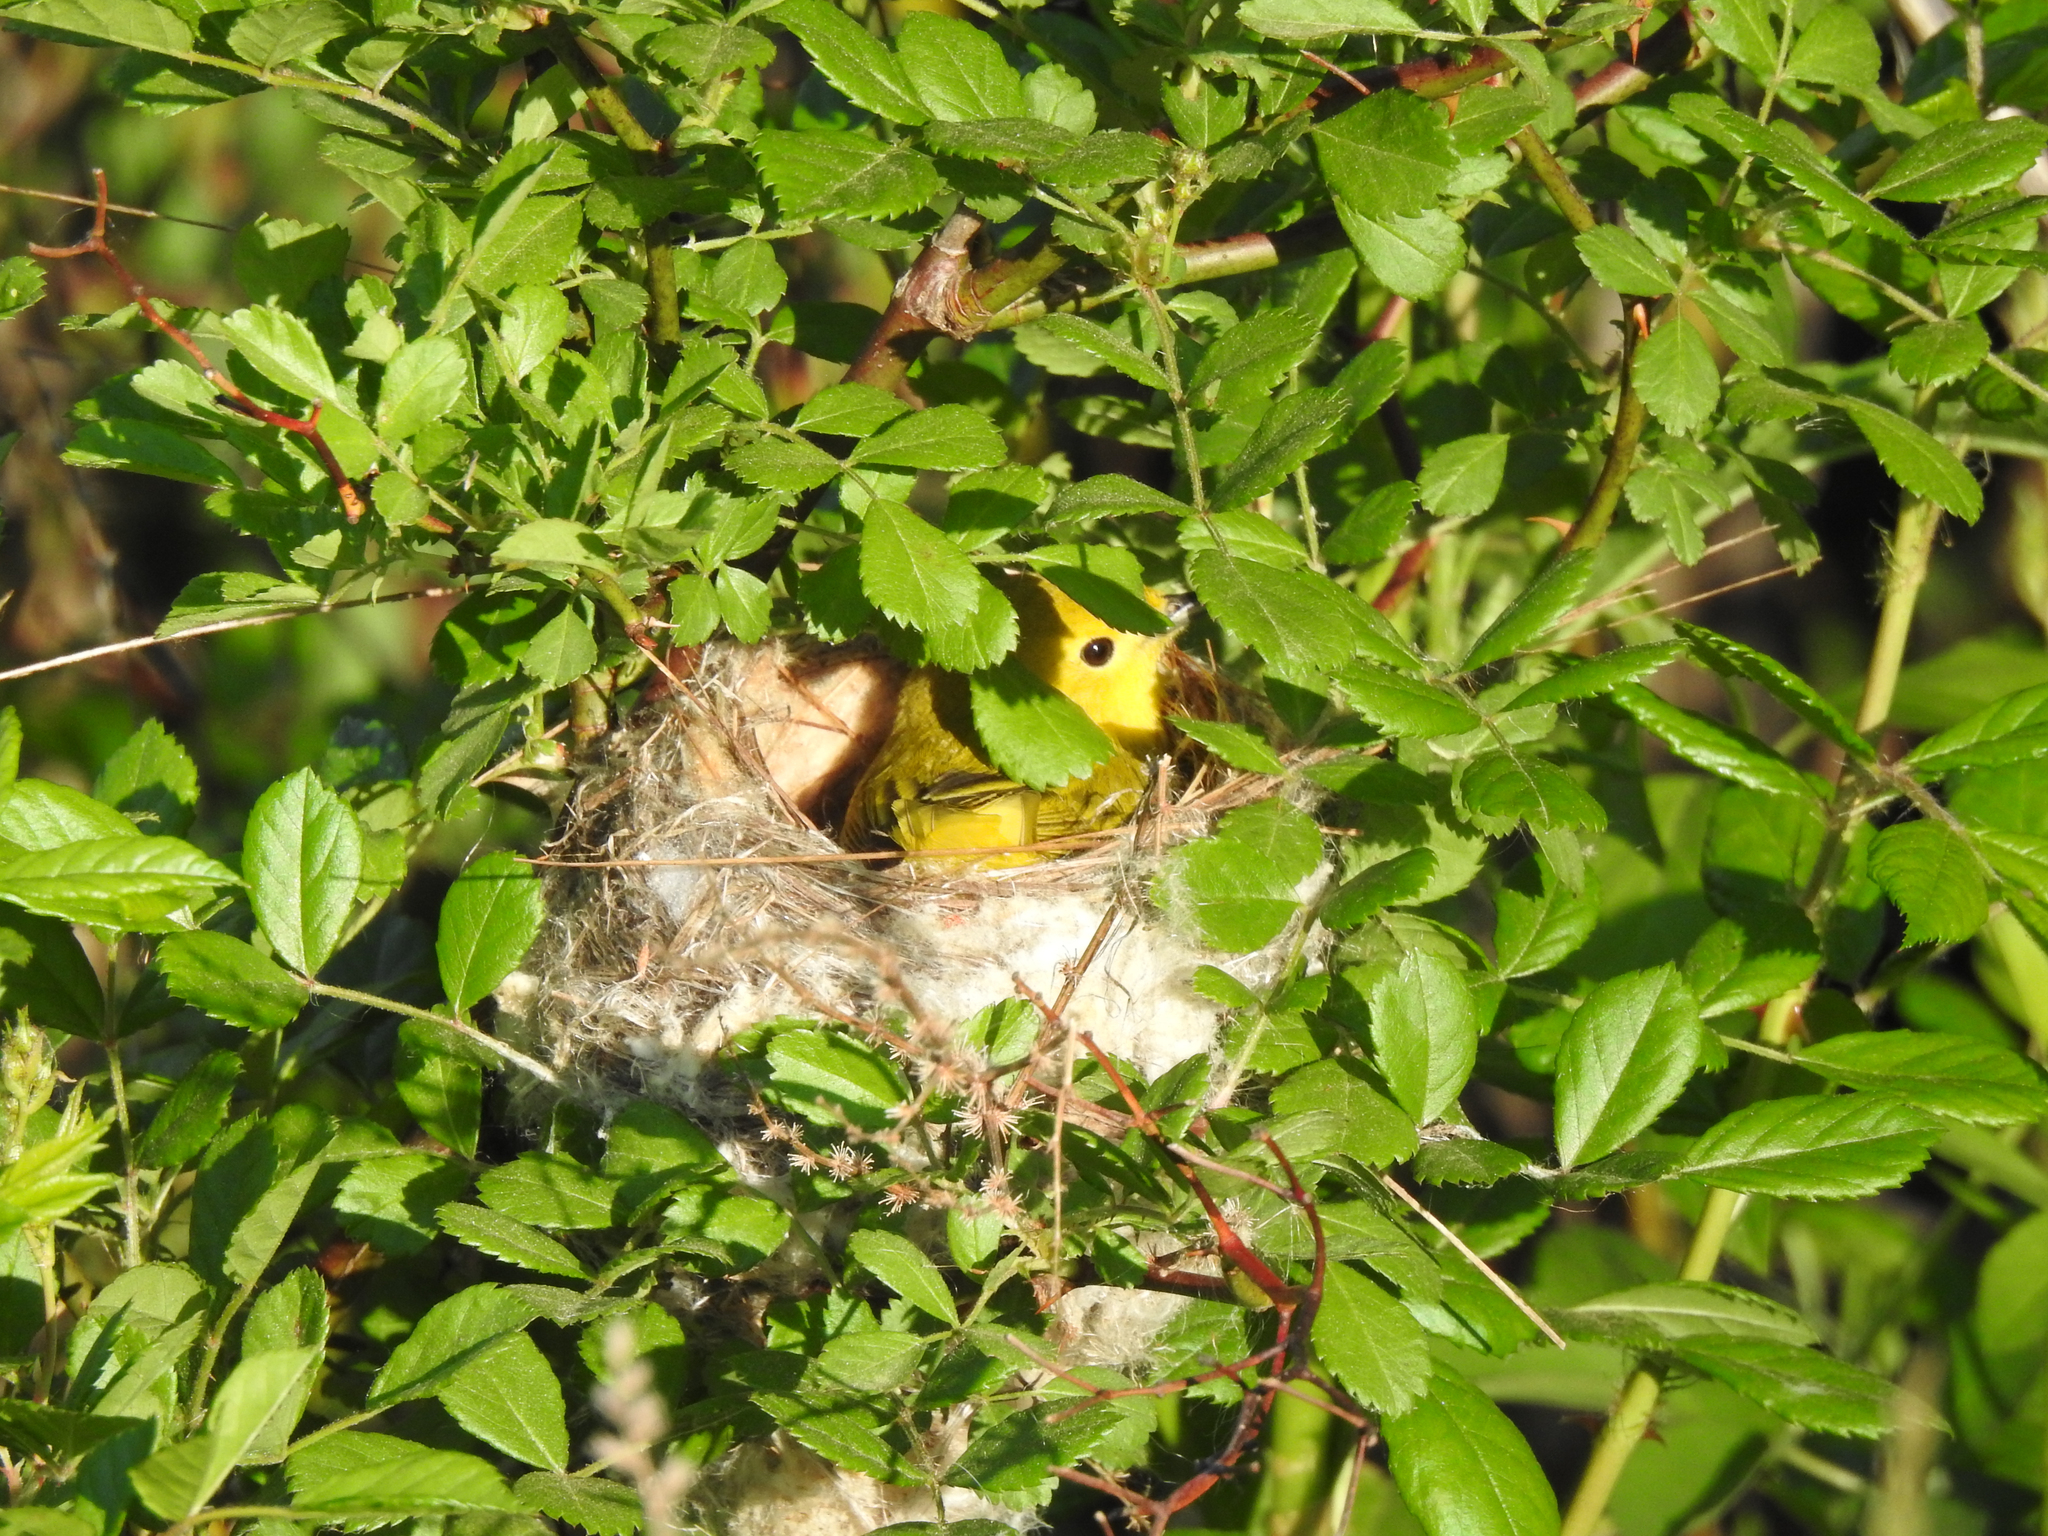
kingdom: Animalia
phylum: Chordata
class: Aves
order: Passeriformes
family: Parulidae
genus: Setophaga
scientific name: Setophaga petechia
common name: Yellow warbler
